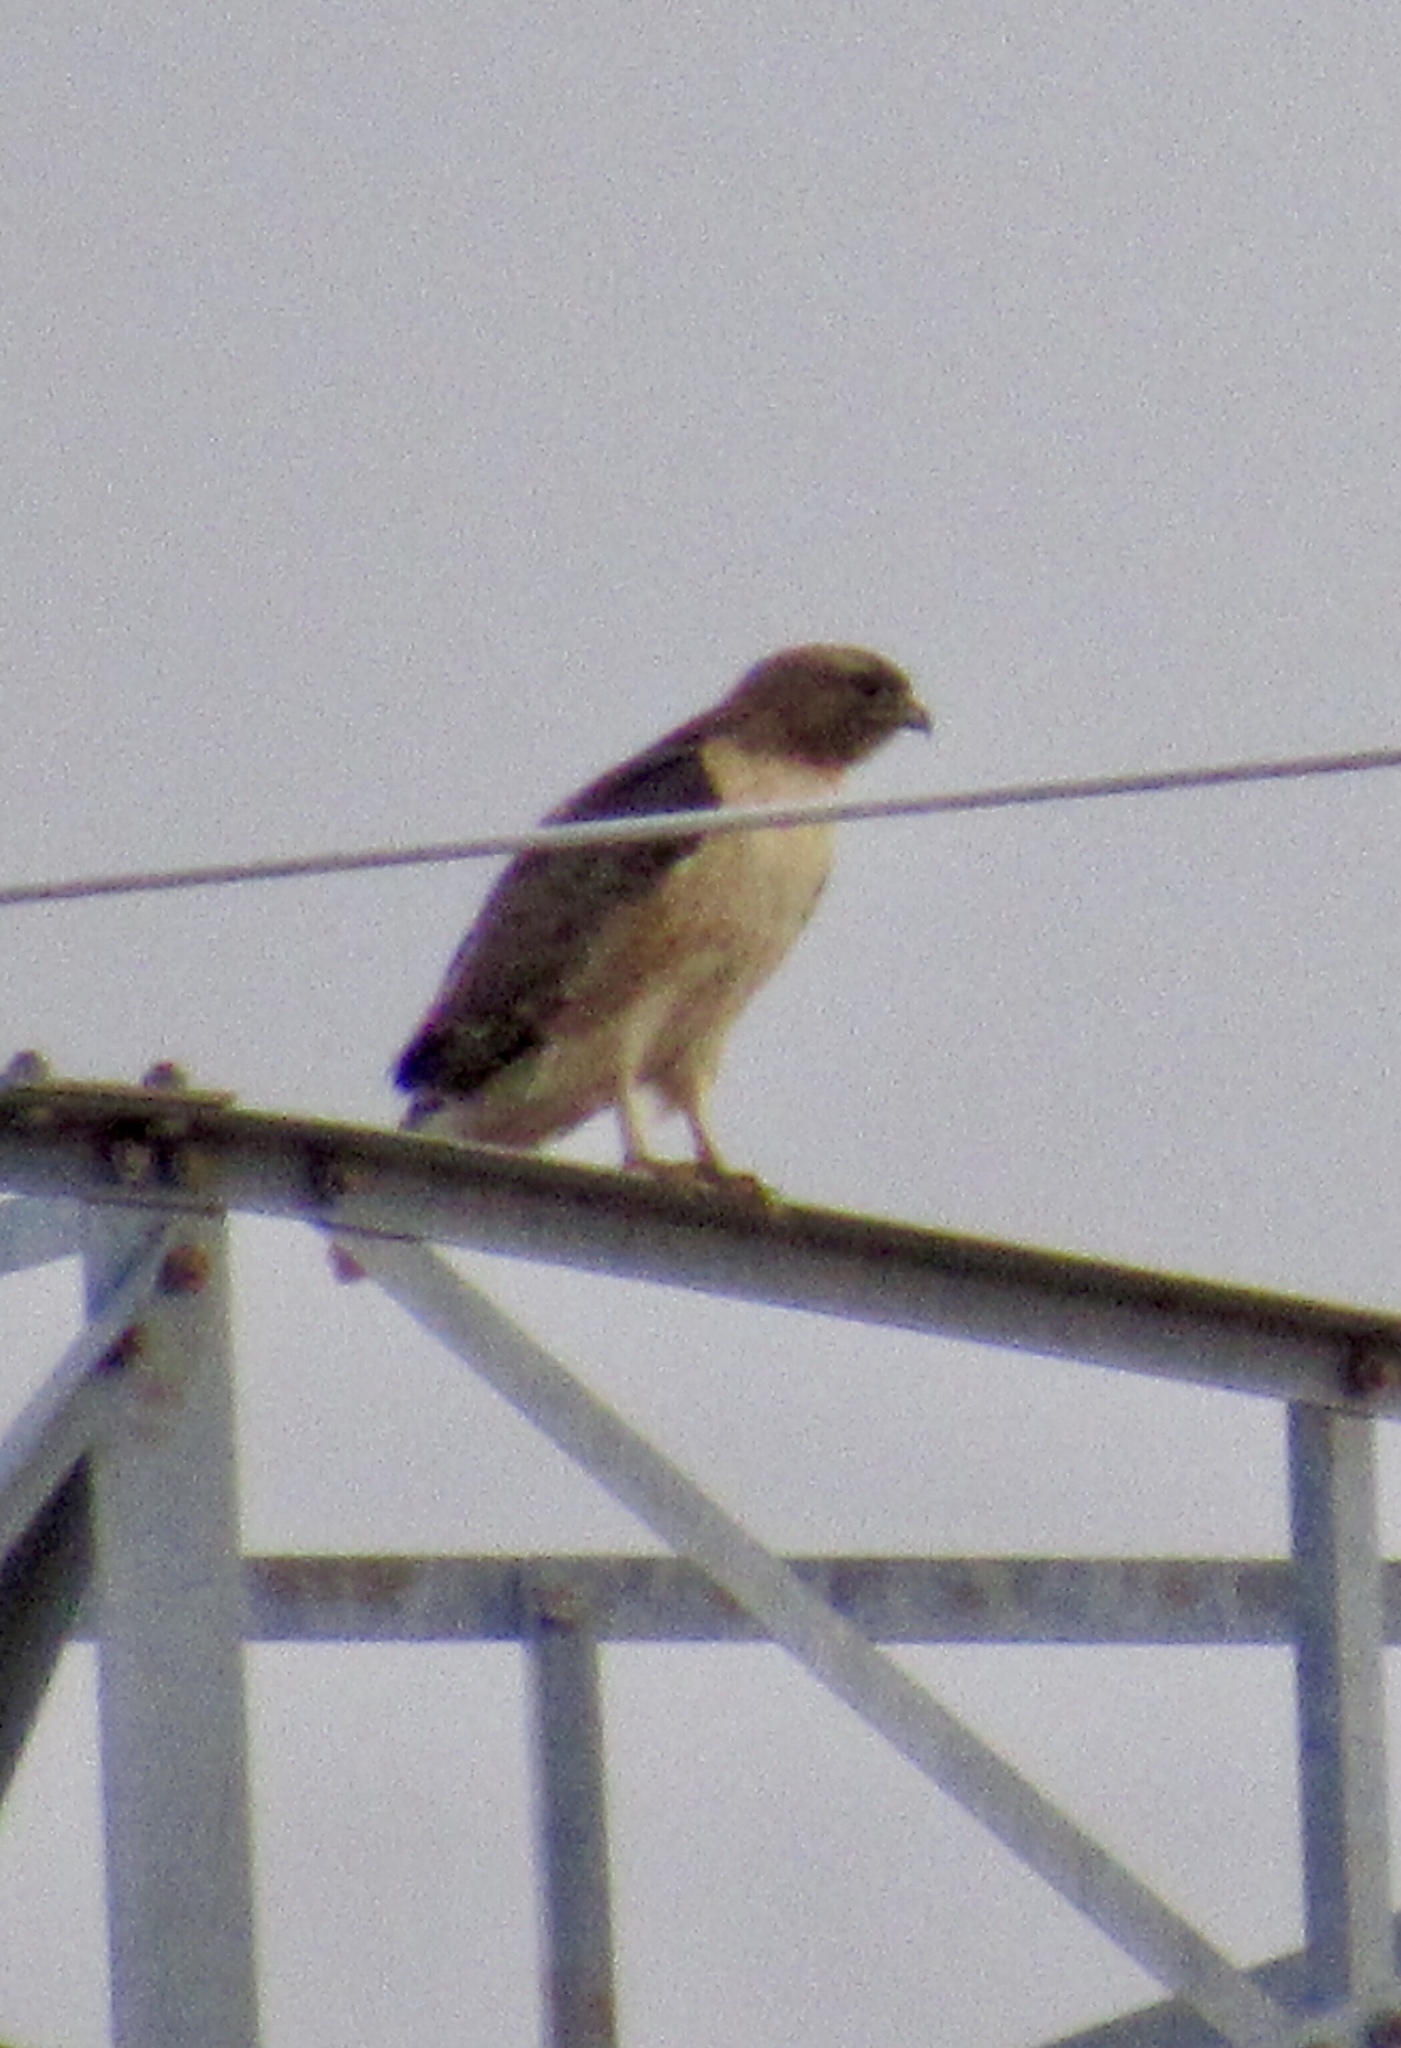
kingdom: Animalia
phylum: Chordata
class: Aves
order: Accipitriformes
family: Accipitridae
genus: Buteo
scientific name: Buteo jamaicensis
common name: Red-tailed hawk
